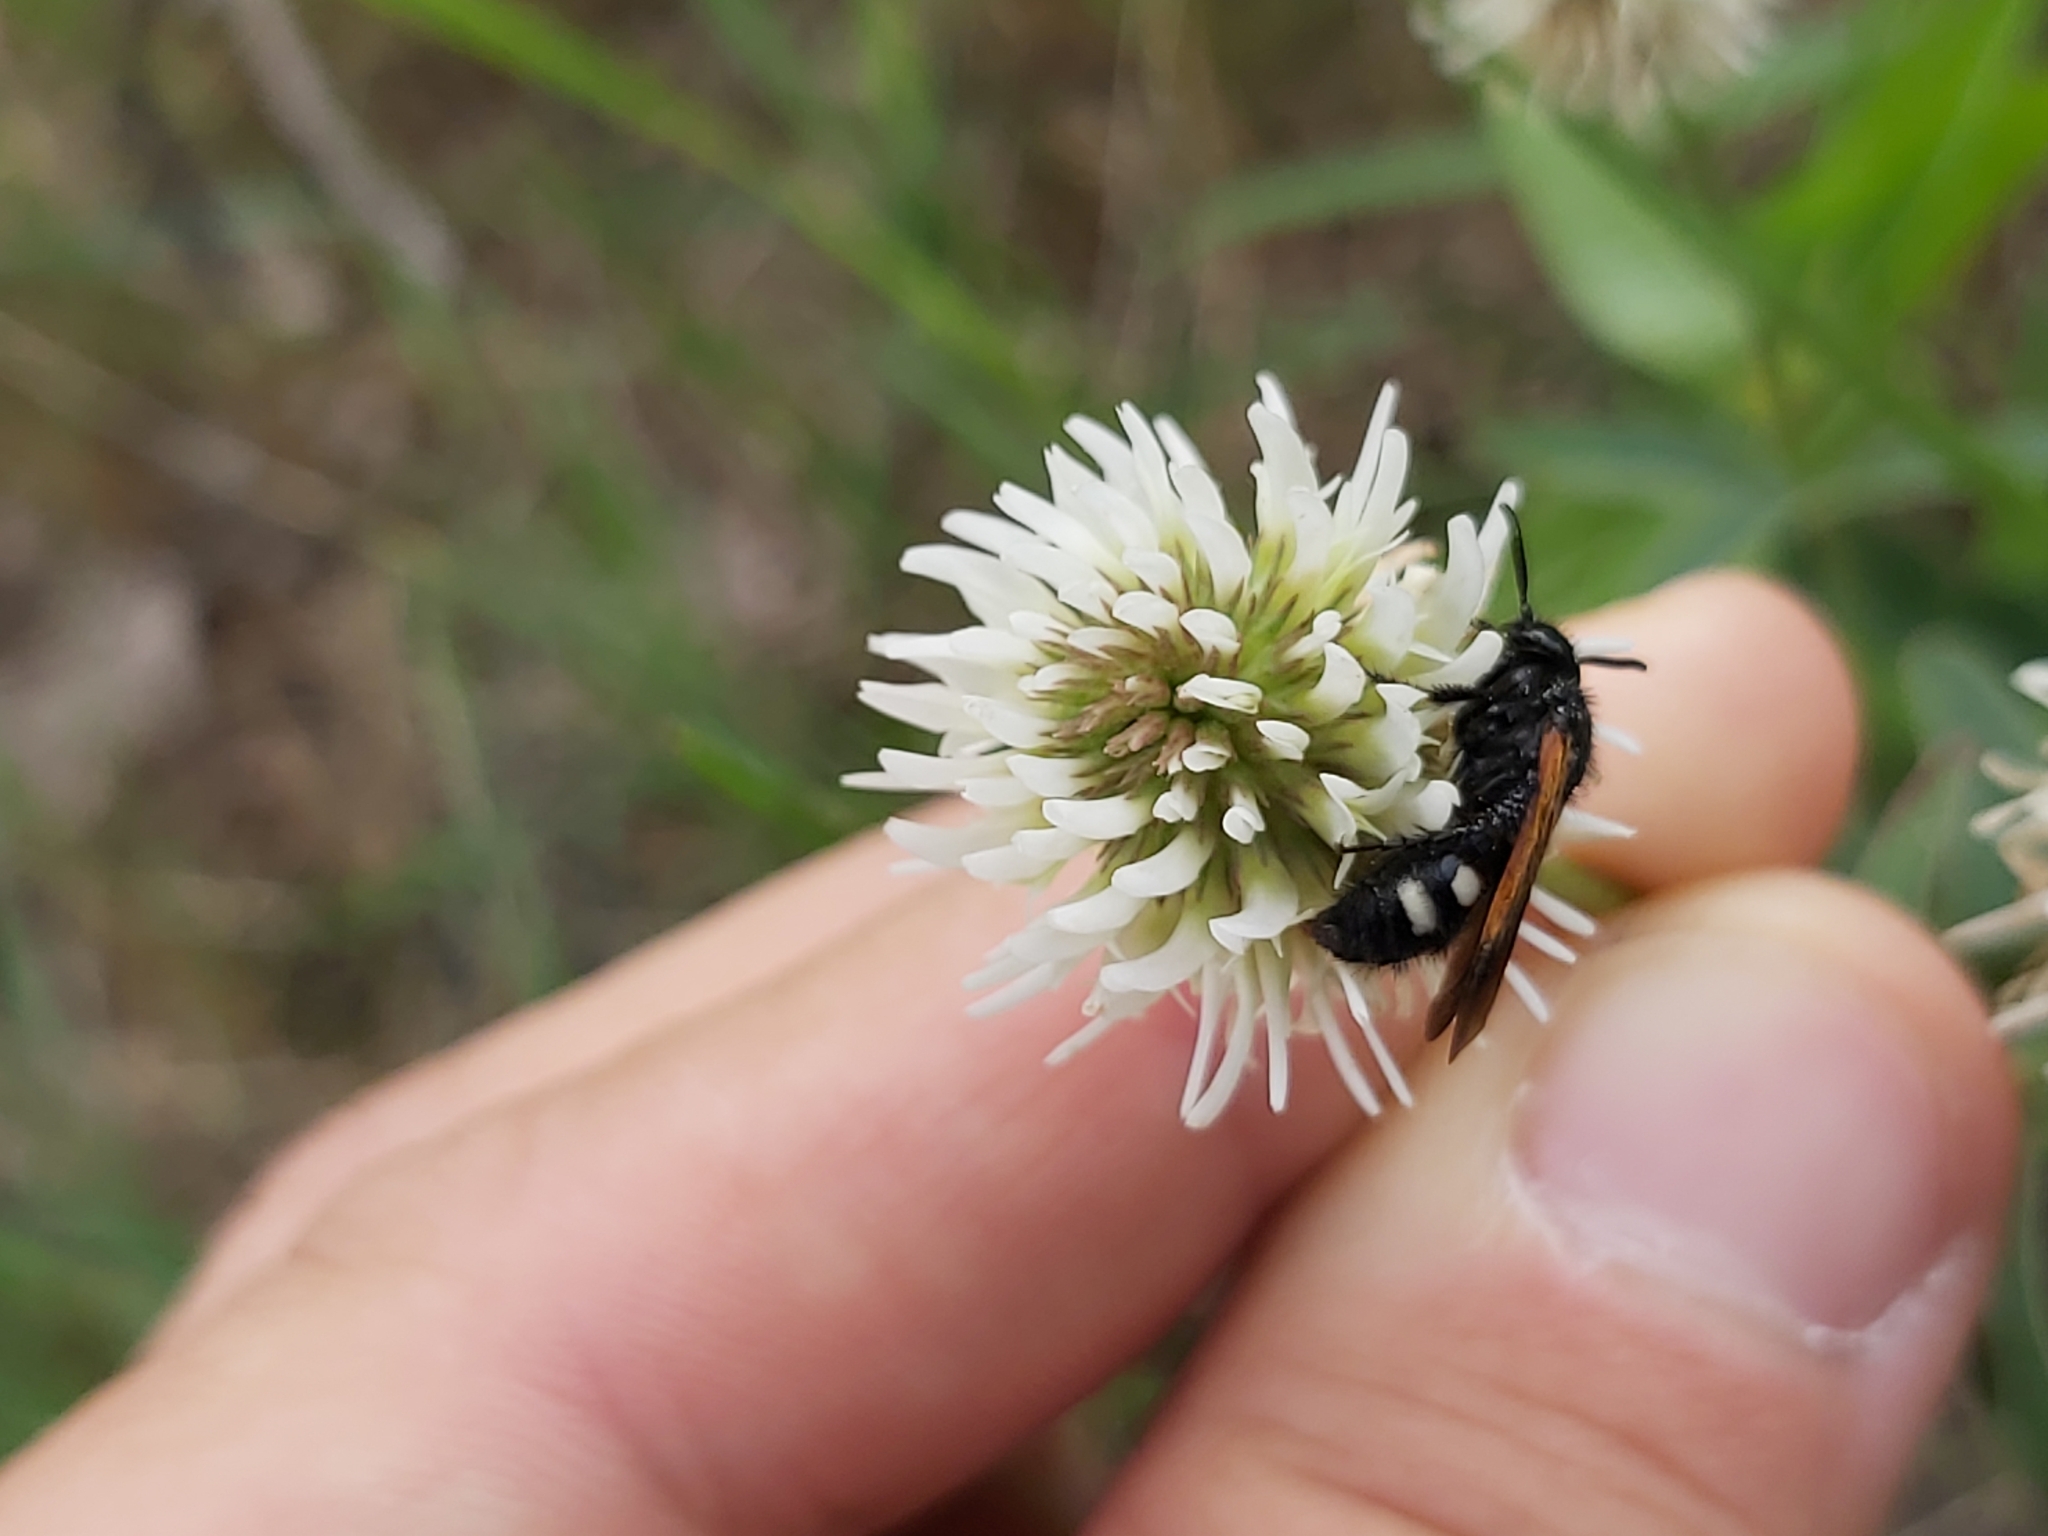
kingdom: Animalia
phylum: Arthropoda
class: Insecta
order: Hymenoptera
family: Vespidae
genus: Vespa
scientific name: Vespa sexmaculata
